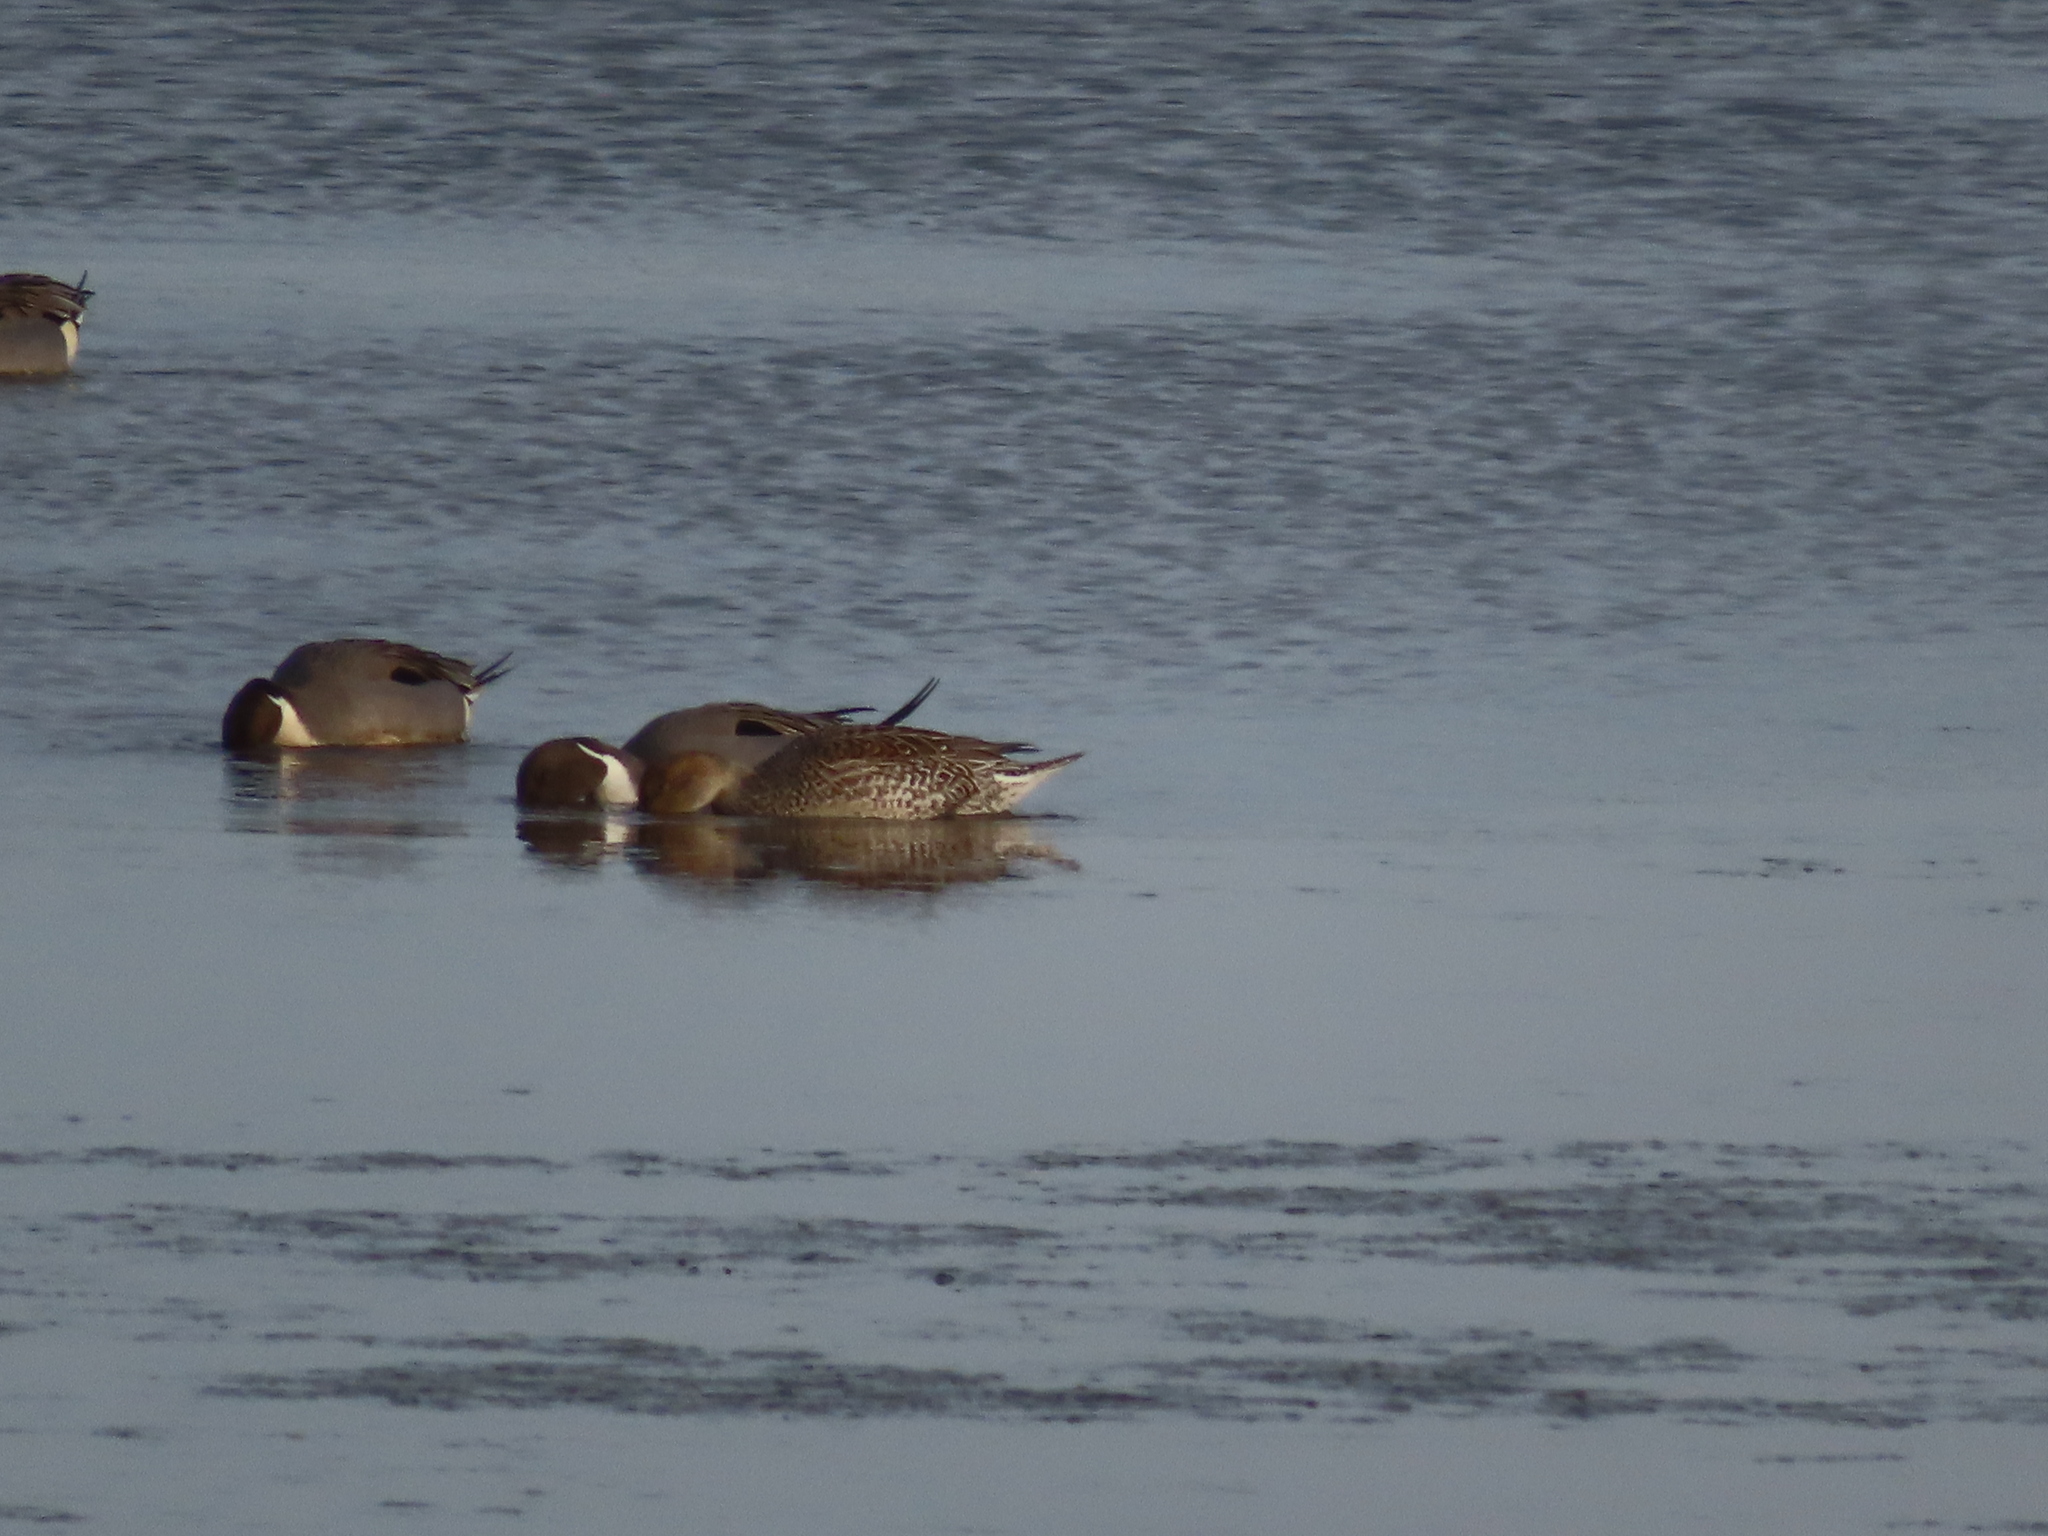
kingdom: Animalia
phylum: Chordata
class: Aves
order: Anseriformes
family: Anatidae
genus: Anas
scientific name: Anas acuta
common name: Northern pintail
